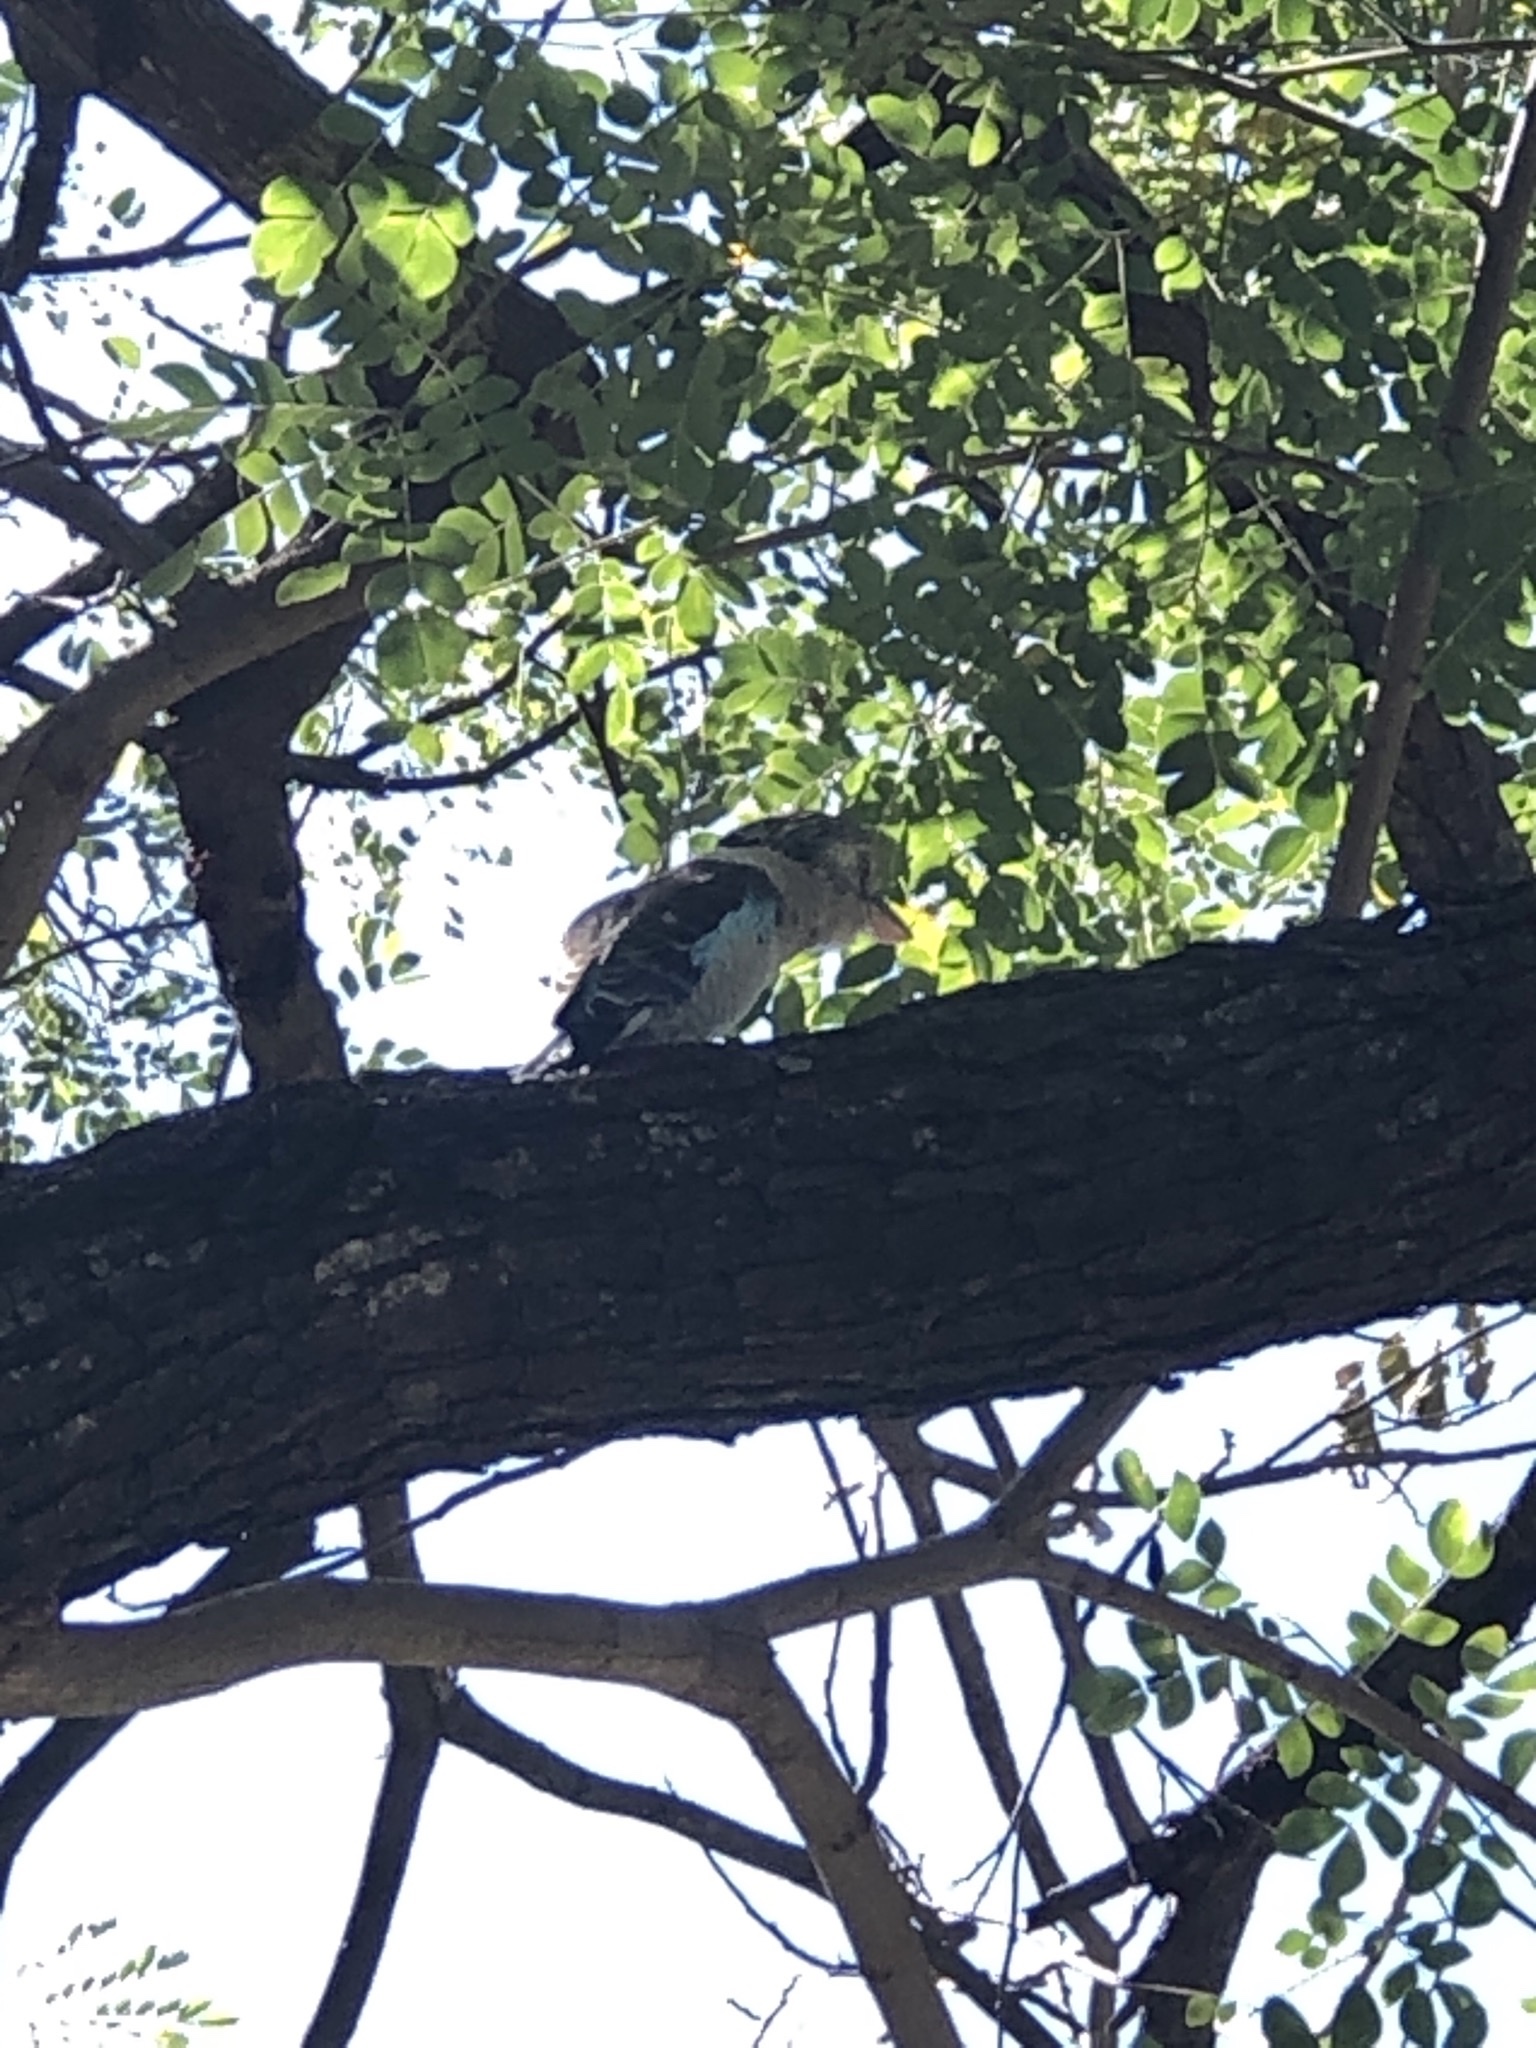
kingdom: Animalia
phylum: Chordata
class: Aves
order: Coraciiformes
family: Alcedinidae
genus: Dacelo
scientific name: Dacelo leachii
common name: Blue-winged kookaburra
